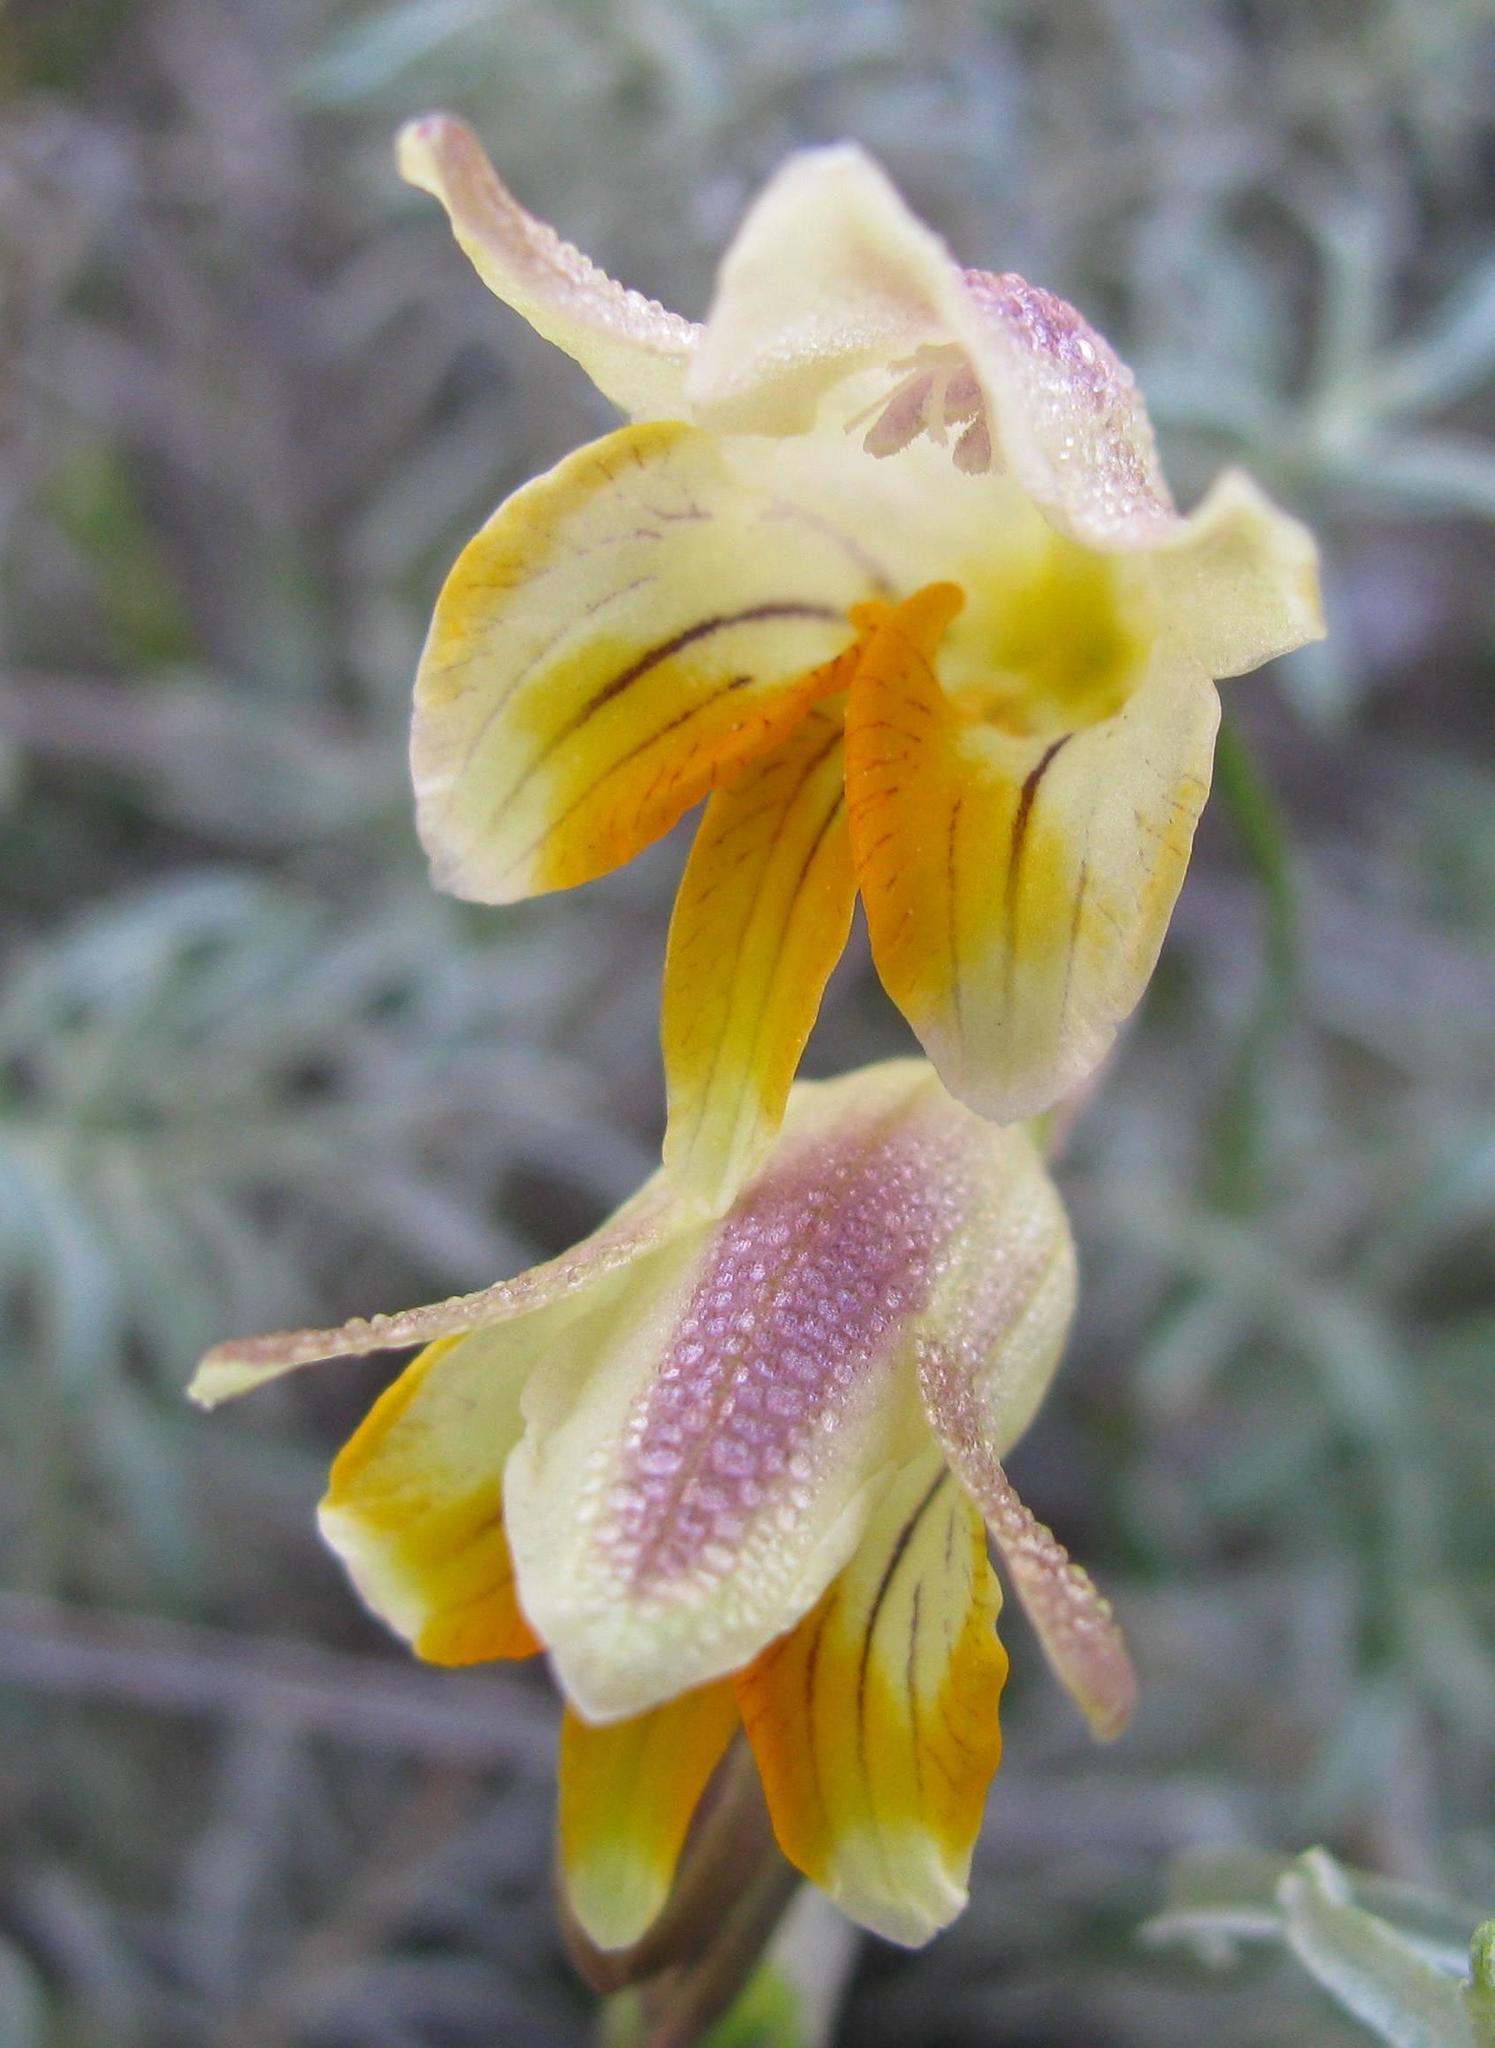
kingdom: Plantae
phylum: Tracheophyta
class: Liliopsida
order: Asparagales
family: Iridaceae
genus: Freesia
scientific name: Freesia refracta
